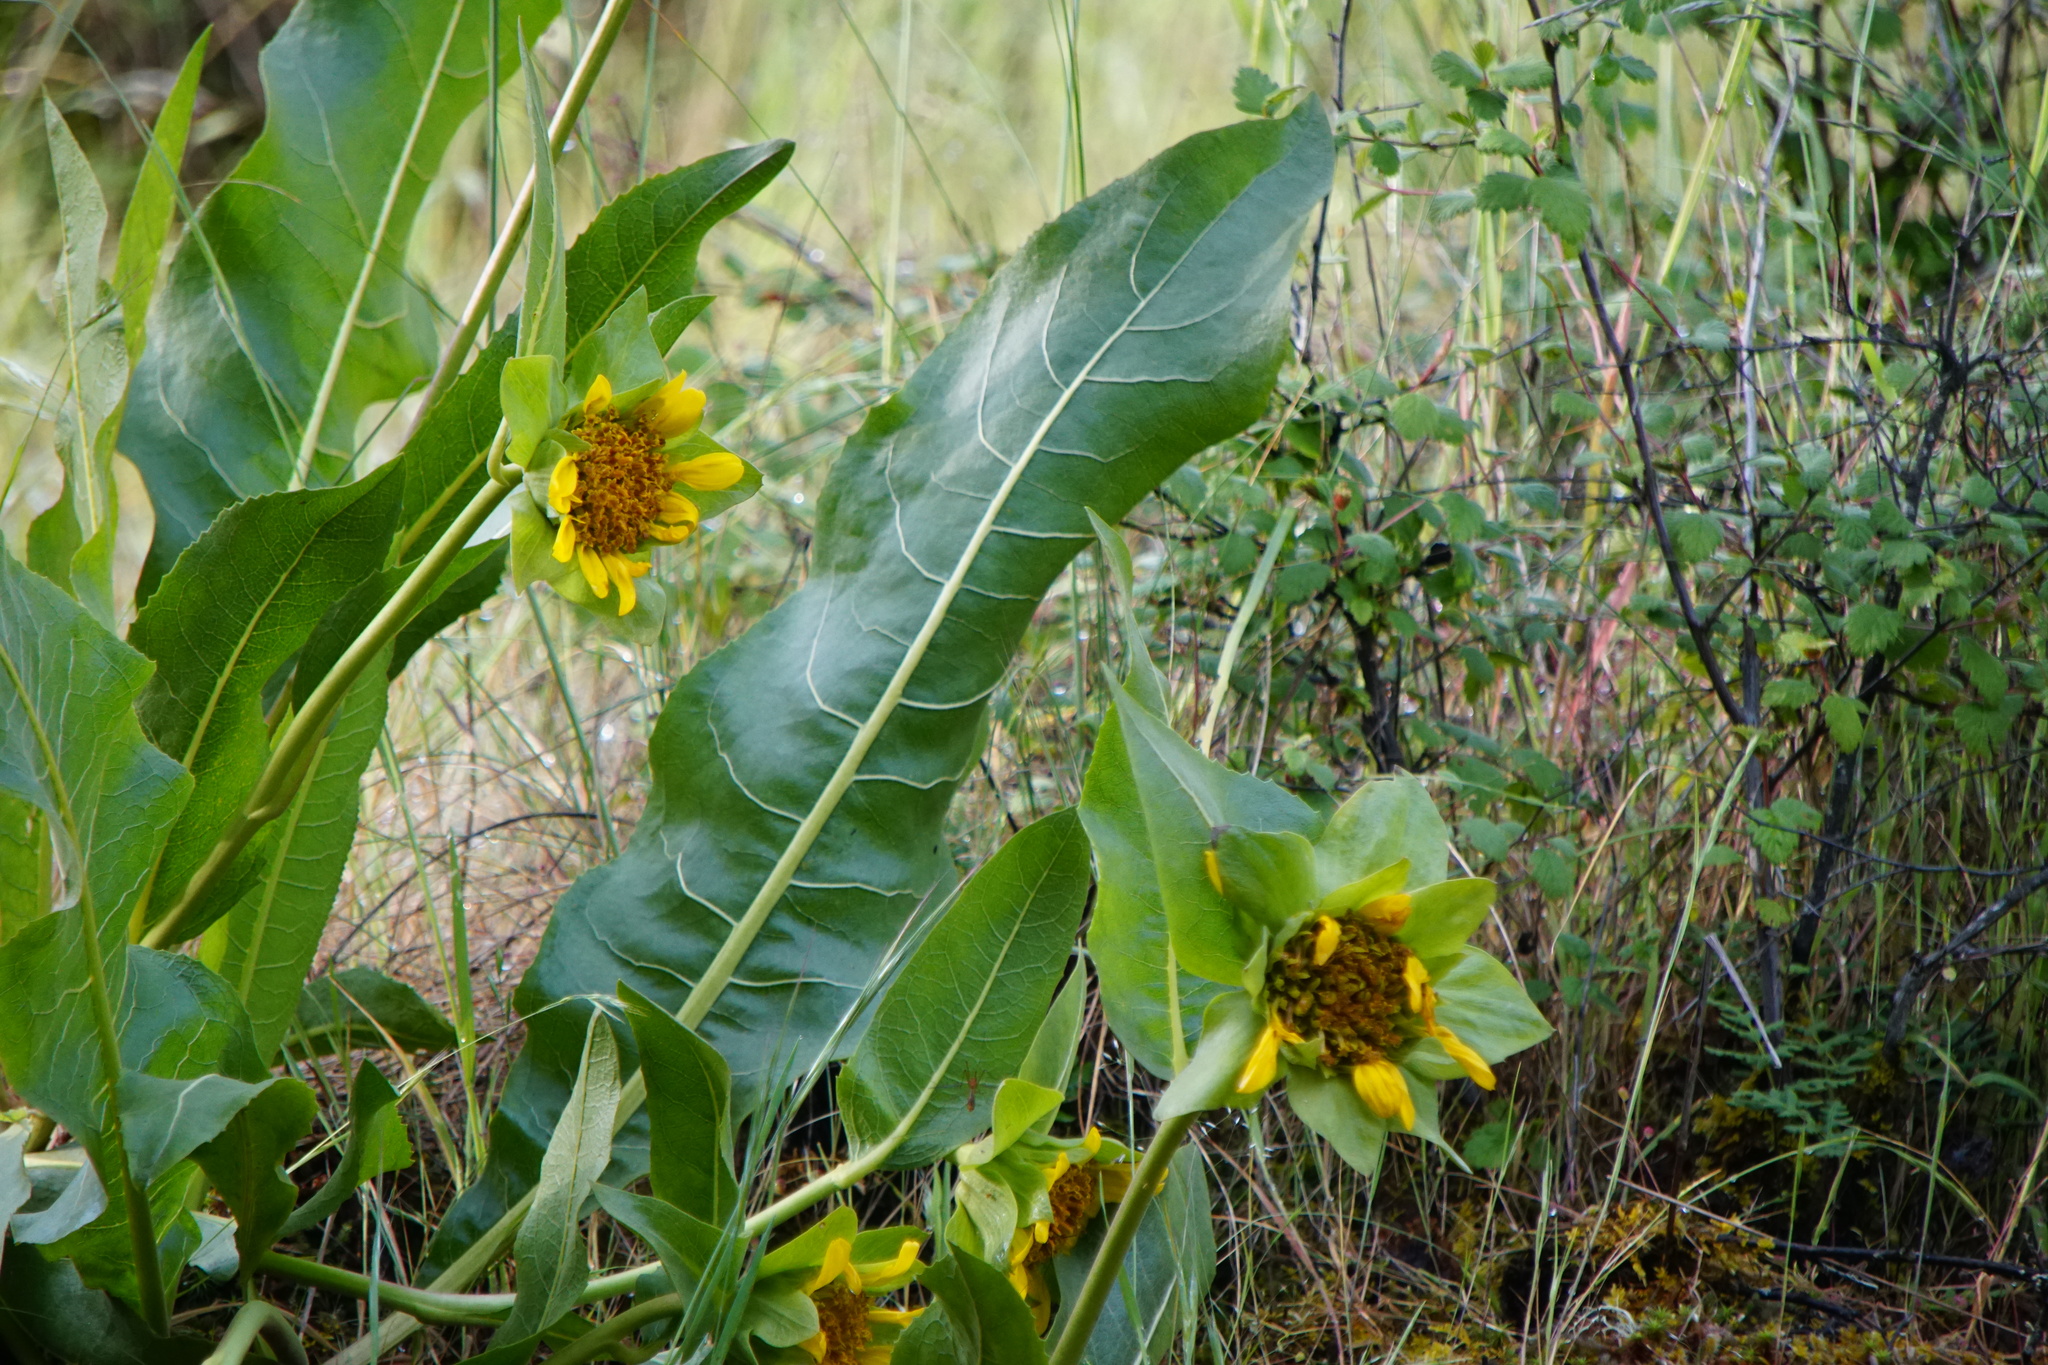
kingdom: Plantae
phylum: Tracheophyta
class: Magnoliopsida
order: Asterales
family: Asteraceae
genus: Wyethia
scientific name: Wyethia glabra
